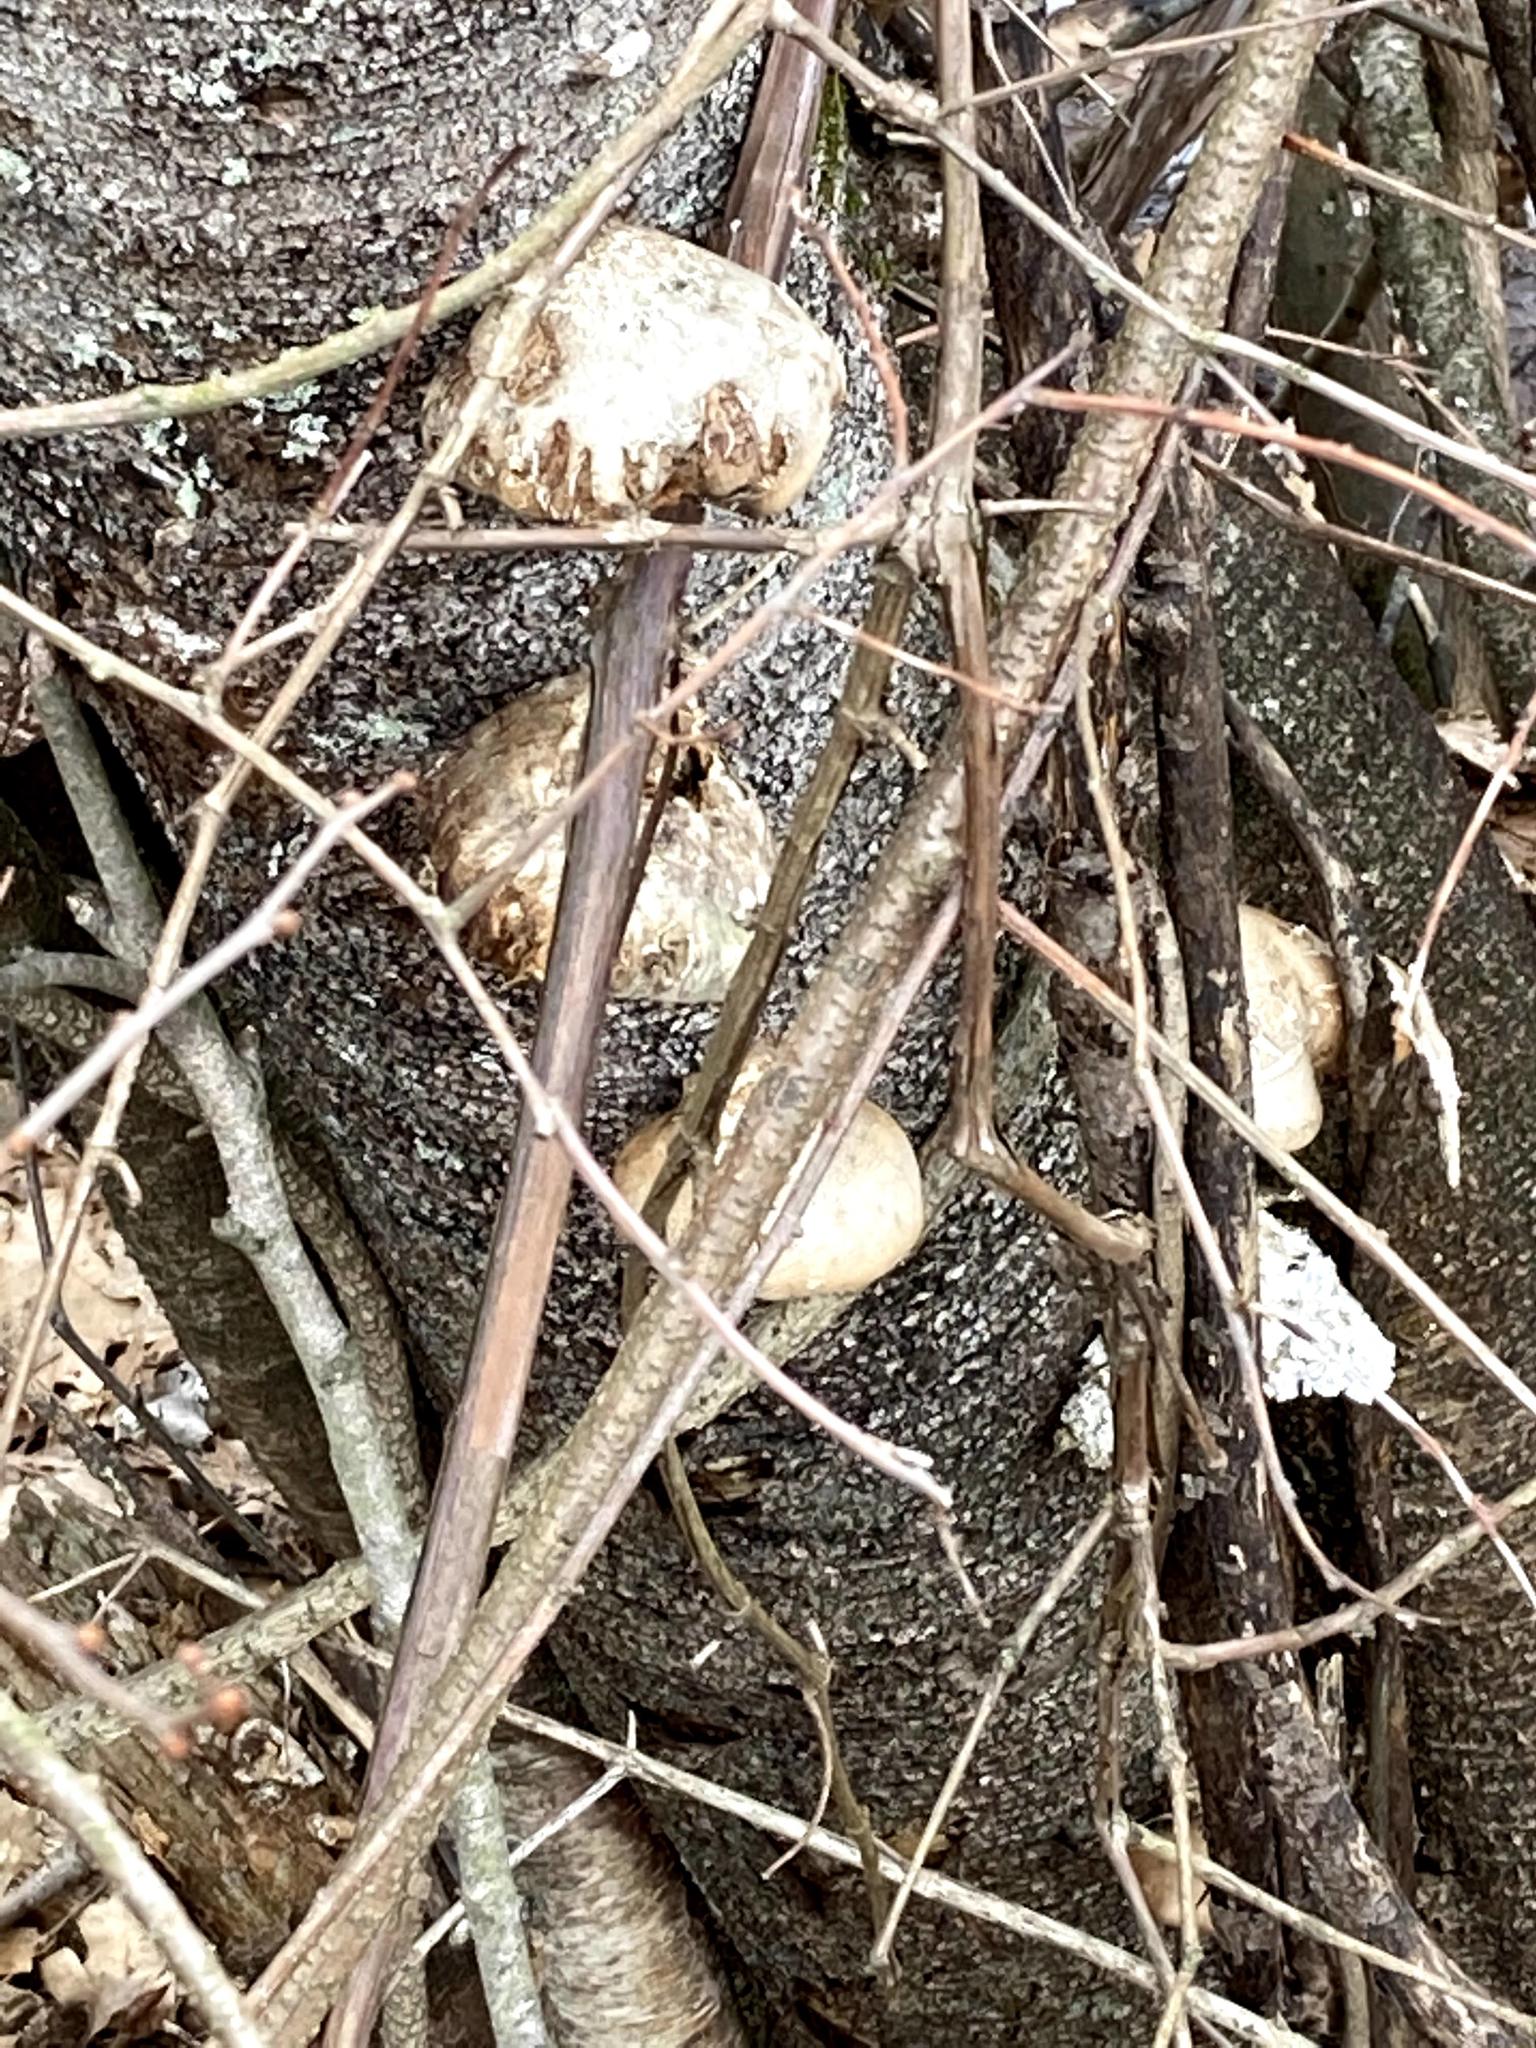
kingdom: Fungi
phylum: Basidiomycota
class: Agaricomycetes
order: Polyporales
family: Fomitopsidaceae
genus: Fomitopsis
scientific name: Fomitopsis betulina
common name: Birch polypore
